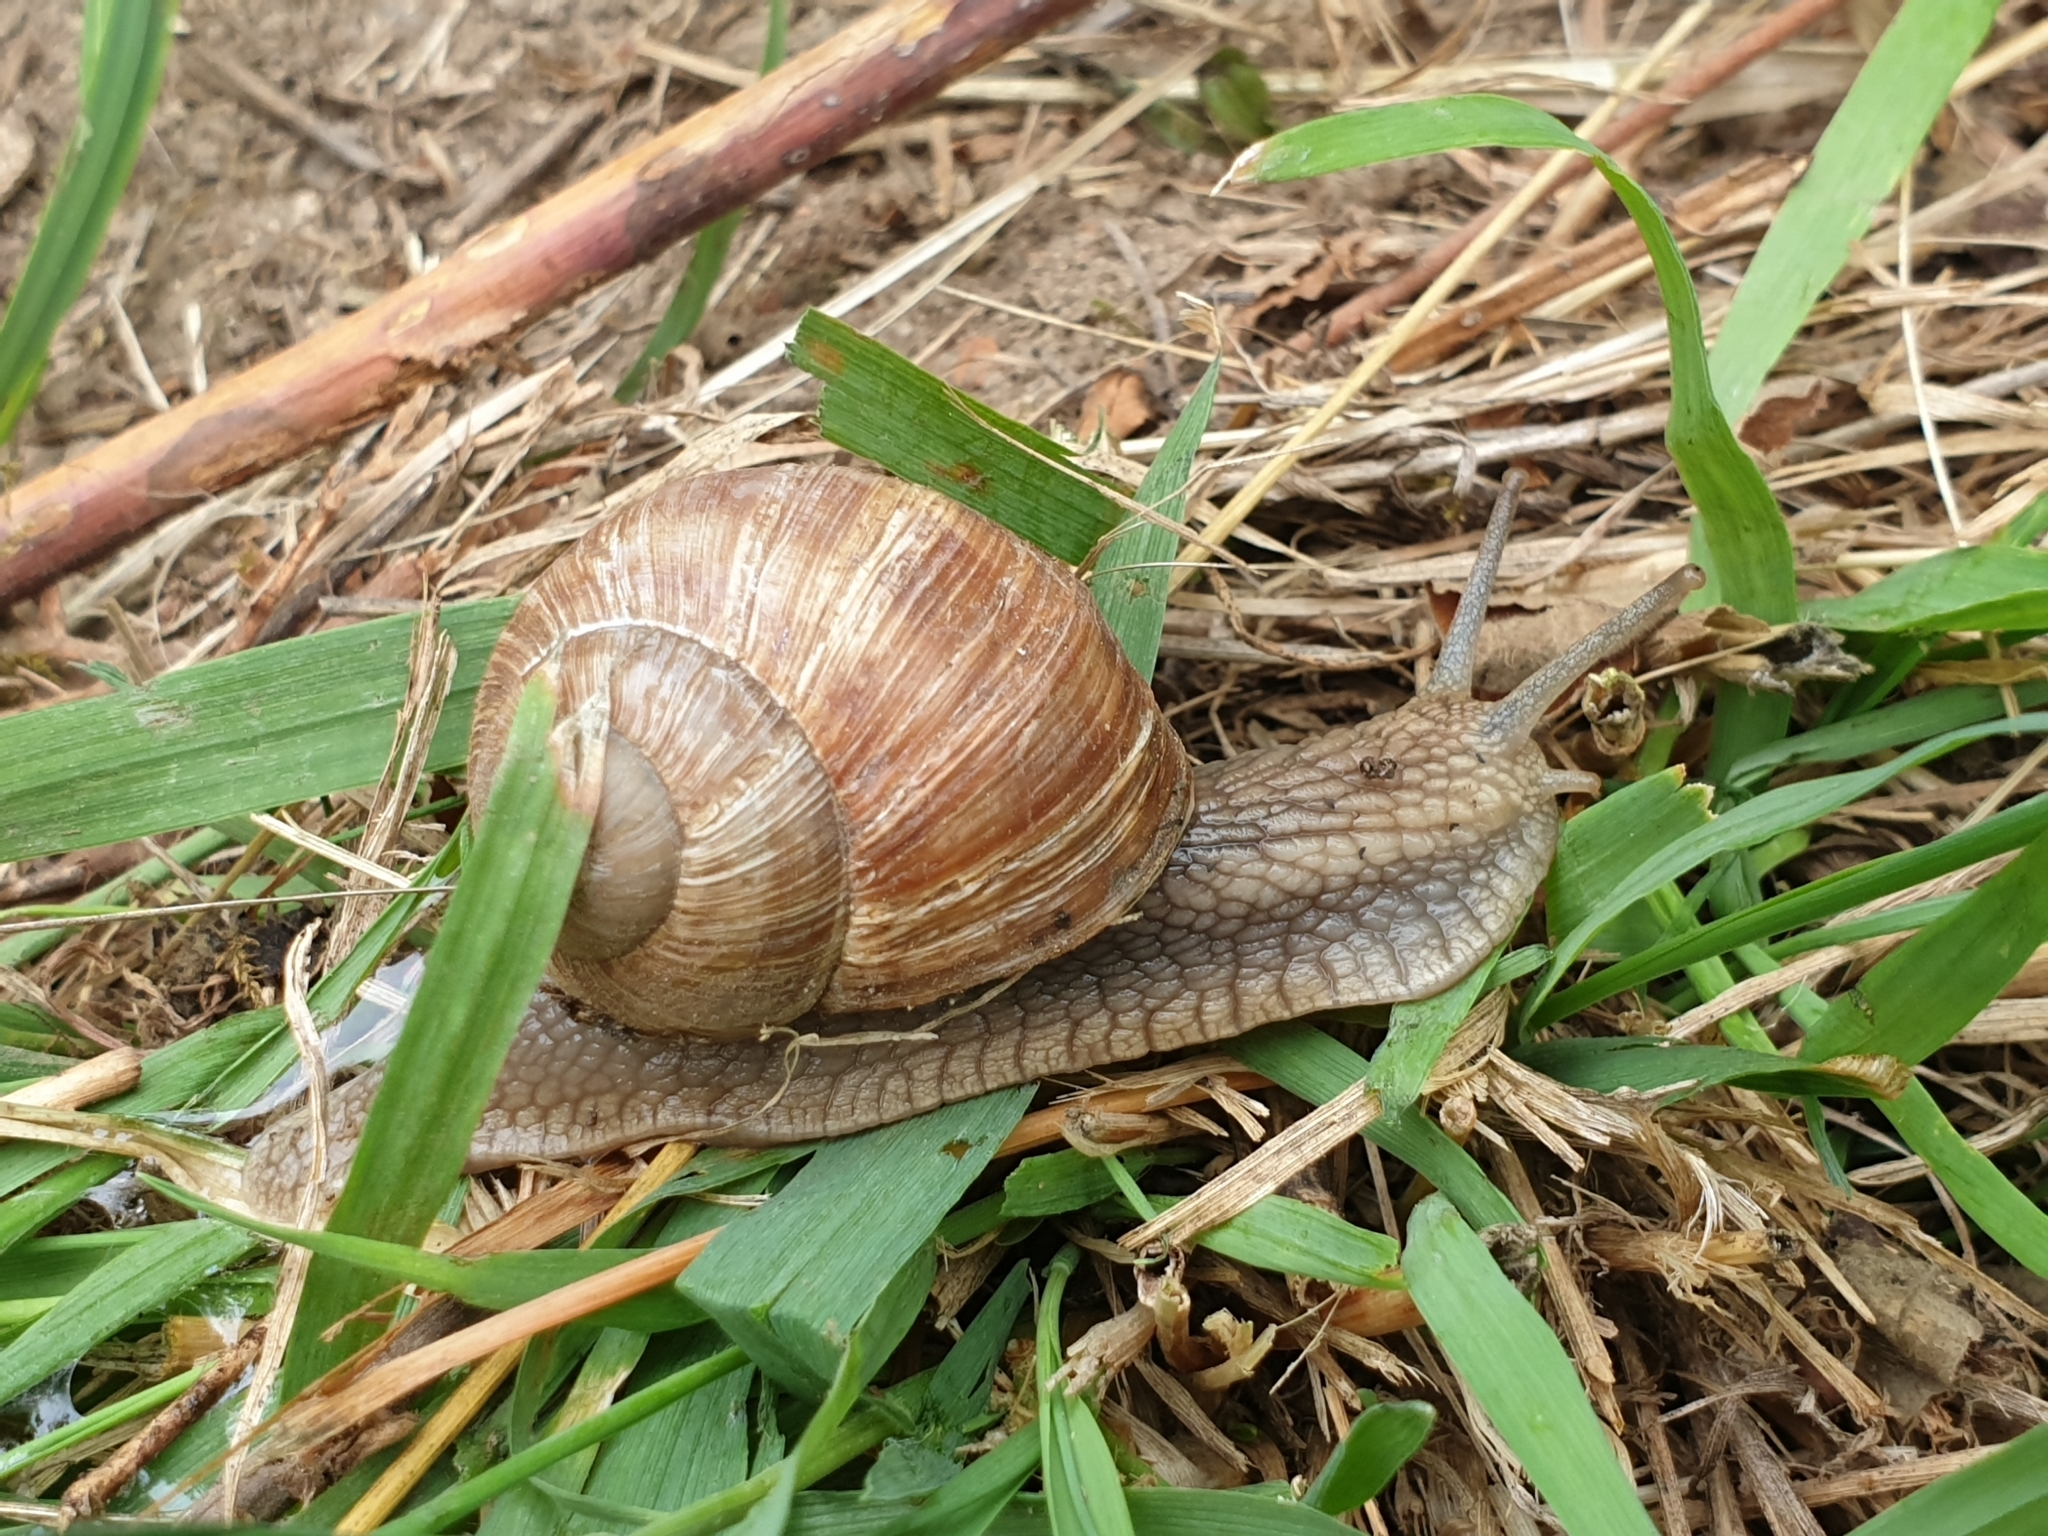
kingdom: Animalia
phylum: Mollusca
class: Gastropoda
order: Stylommatophora
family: Helicidae
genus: Helix
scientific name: Helix pomatia
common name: Roman snail
